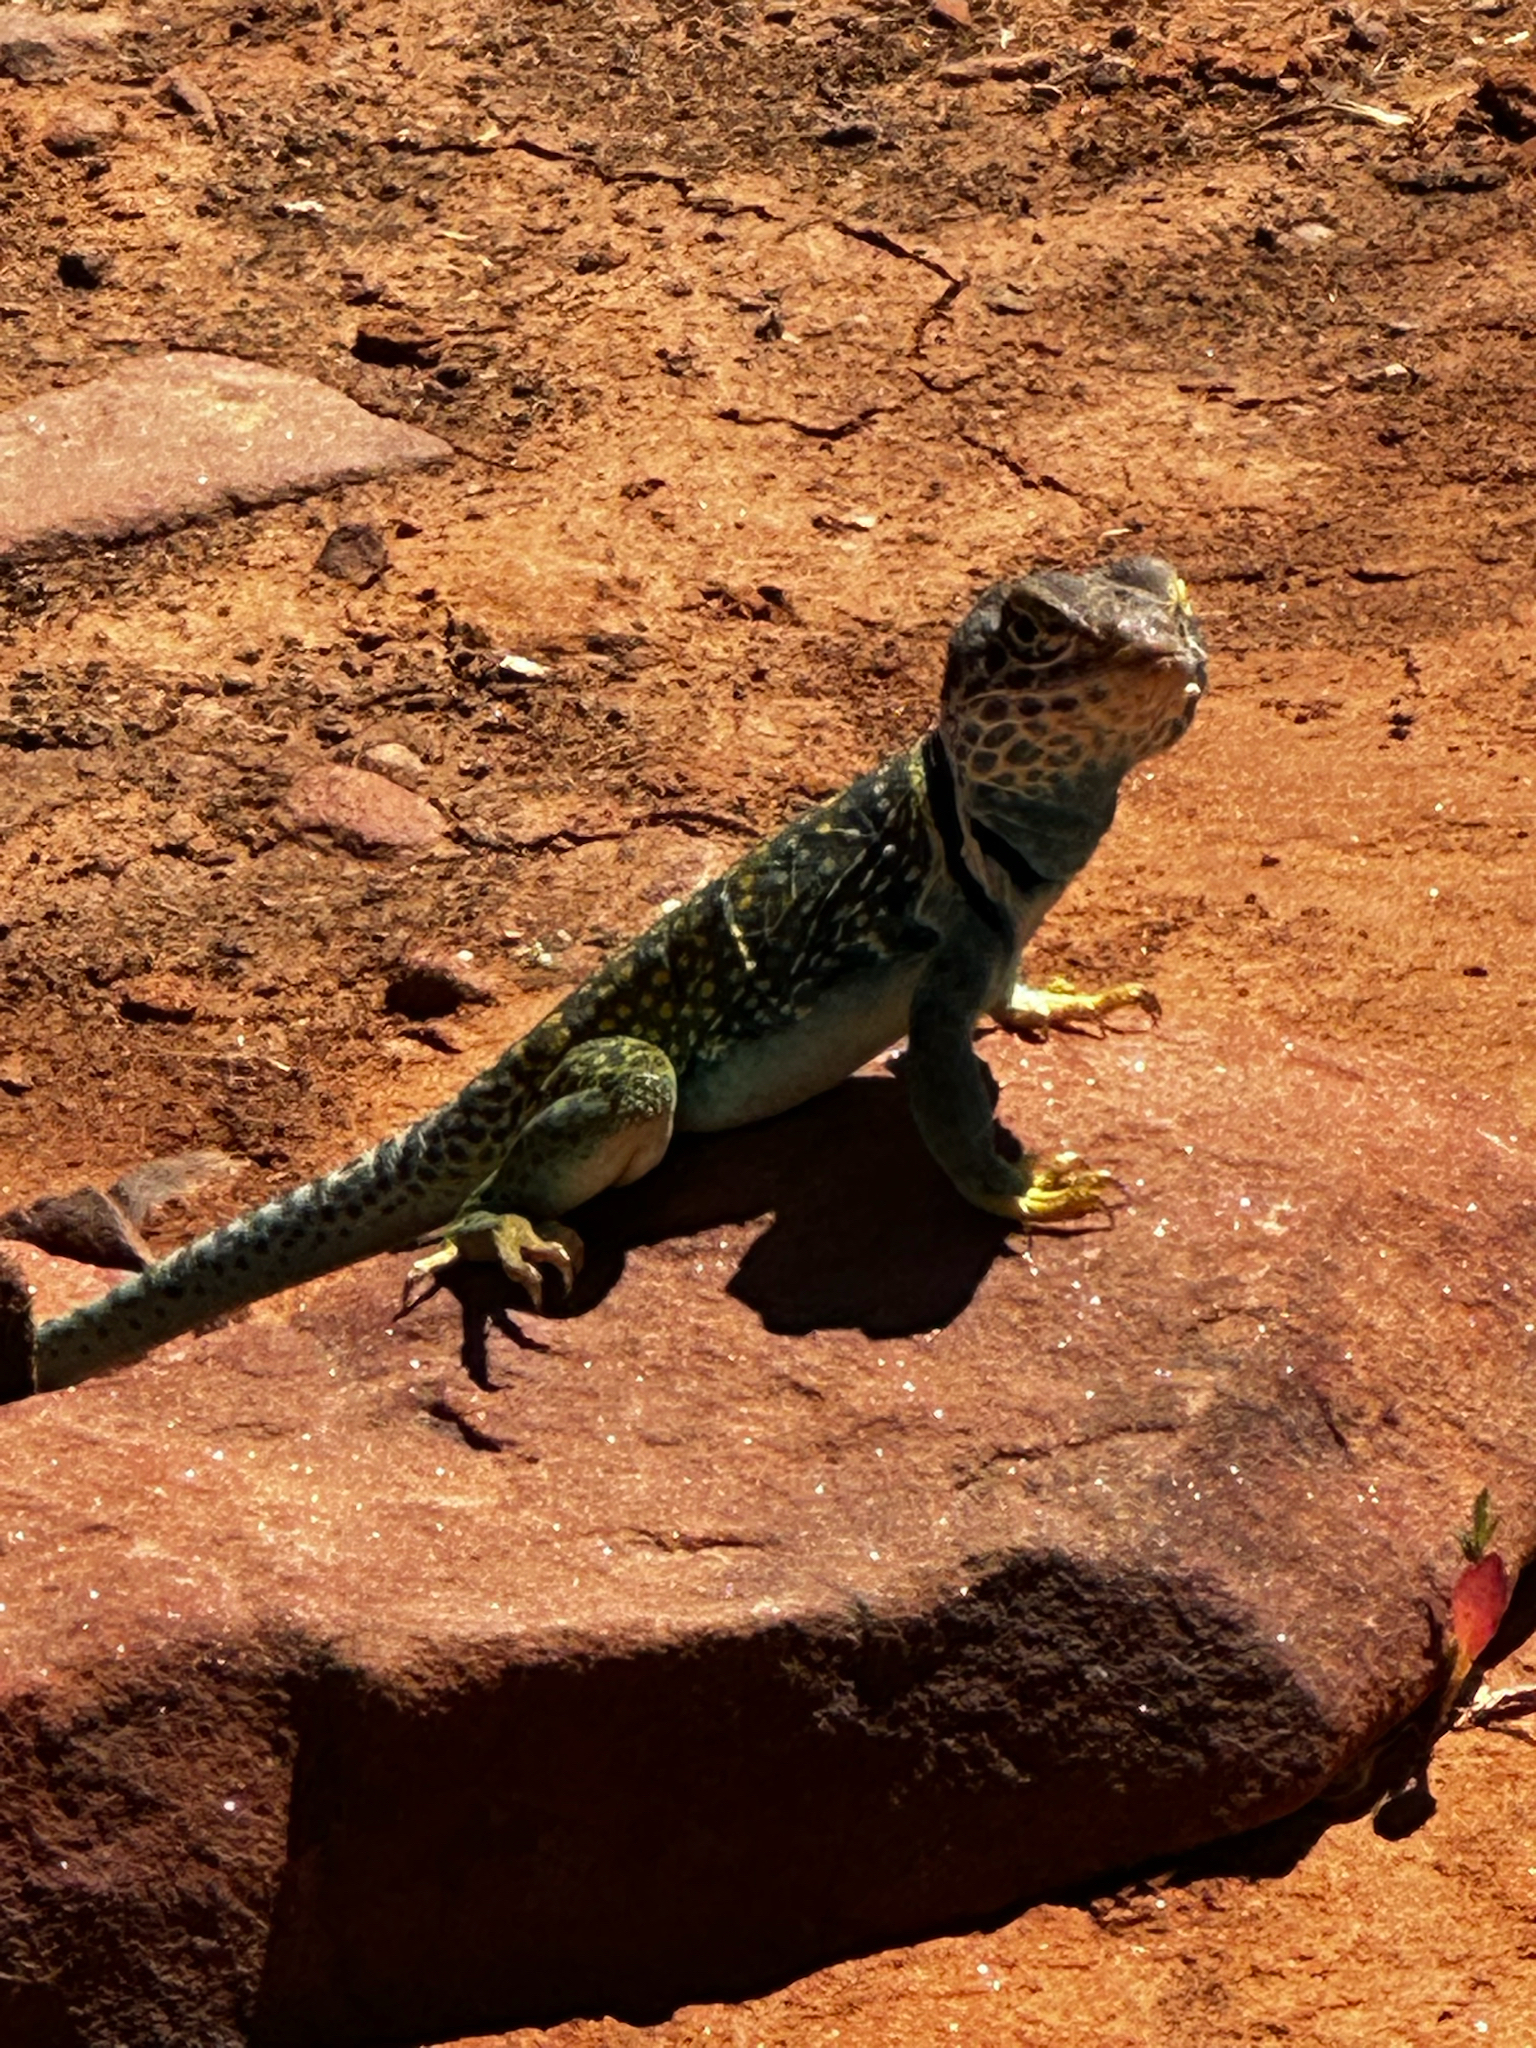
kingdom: Animalia
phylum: Chordata
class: Squamata
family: Crotaphytidae
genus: Crotaphytus
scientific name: Crotaphytus collaris
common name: Collared lizard
